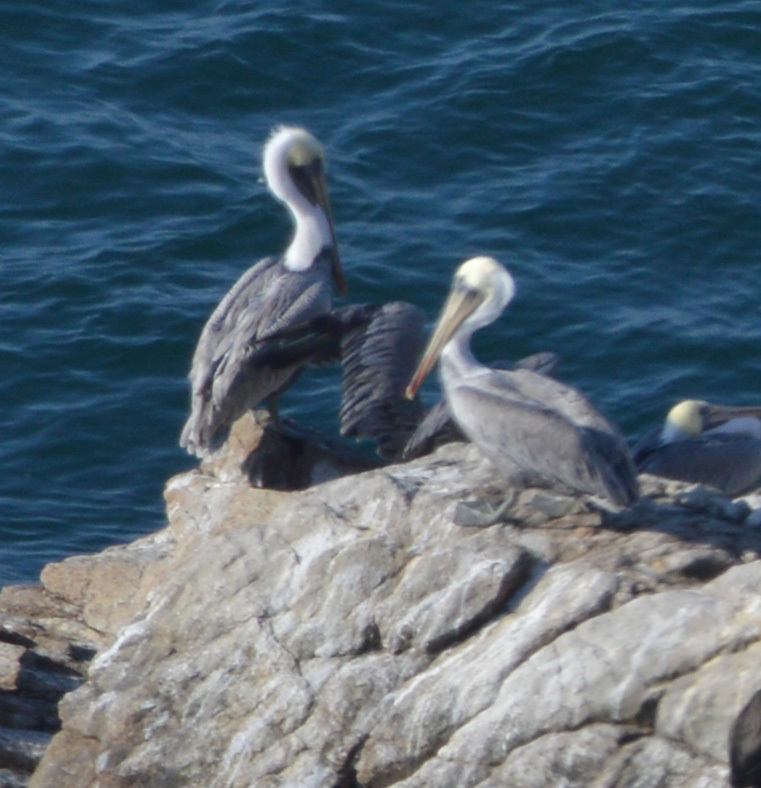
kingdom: Animalia
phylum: Chordata
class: Aves
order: Pelecaniformes
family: Pelecanidae
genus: Pelecanus
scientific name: Pelecanus occidentalis
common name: Brown pelican
